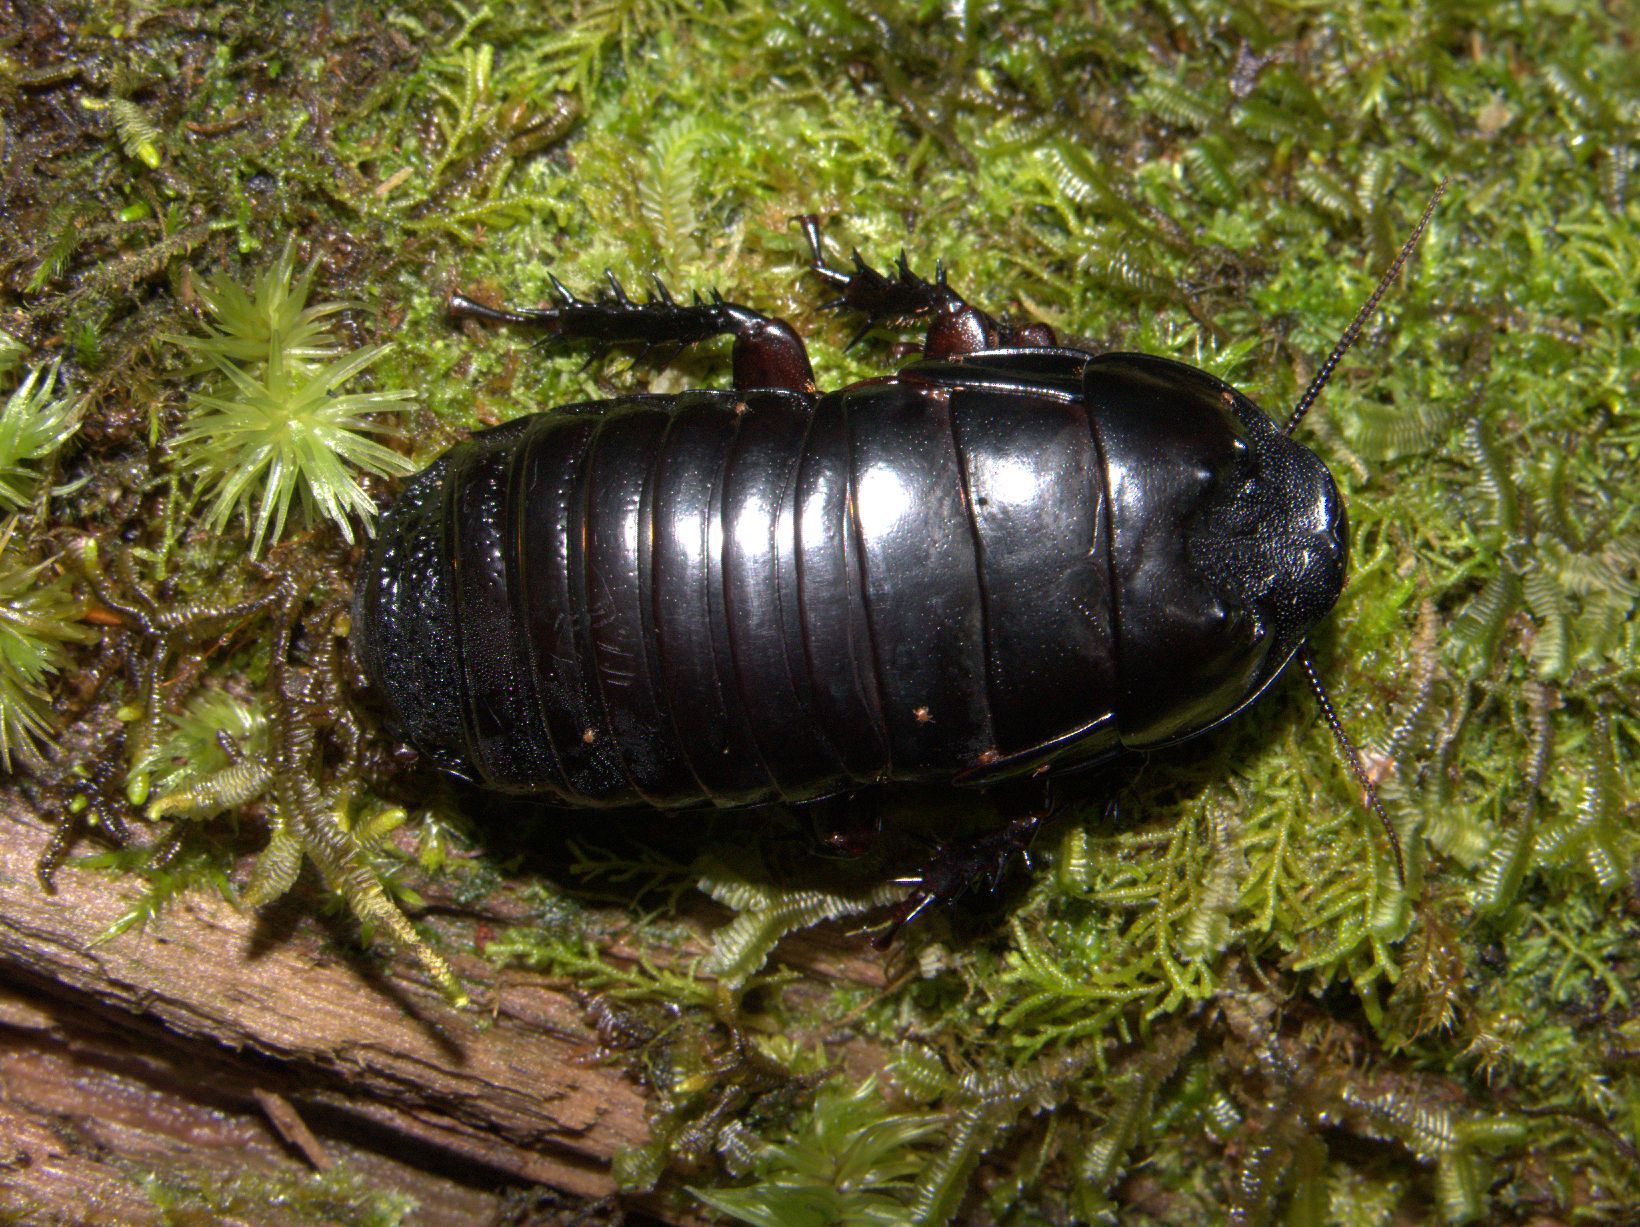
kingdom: Animalia
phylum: Arthropoda
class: Insecta
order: Blattodea
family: Blaberidae
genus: Panesthia
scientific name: Panesthia triangulifera
